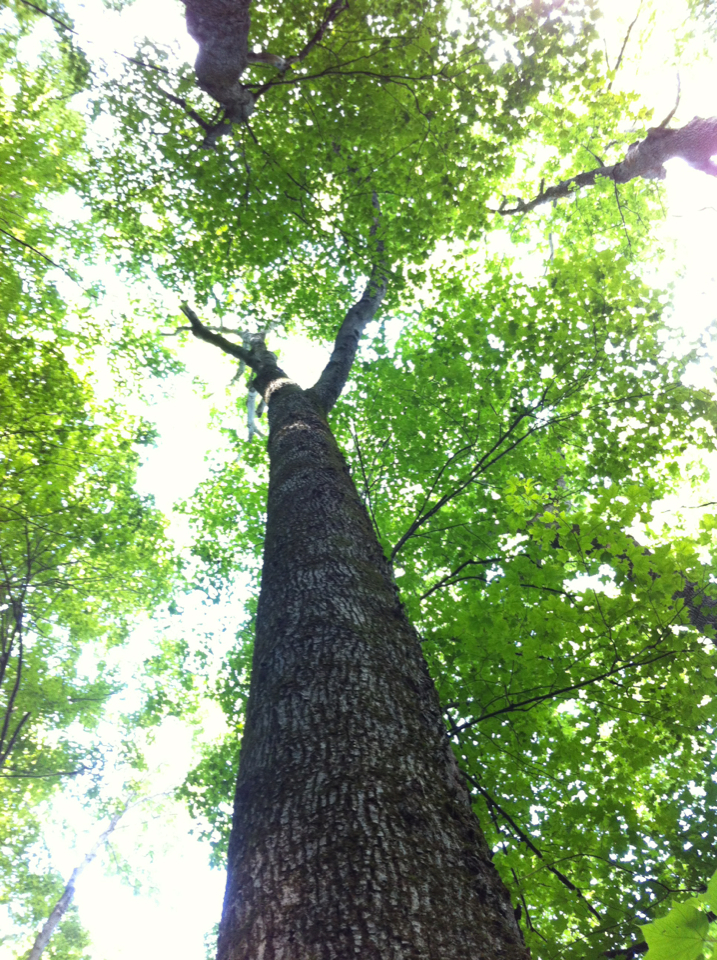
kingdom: Plantae
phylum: Tracheophyta
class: Magnoliopsida
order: Fagales
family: Juglandaceae
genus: Carya
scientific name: Carya cordiformis
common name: Bitternut hickory
